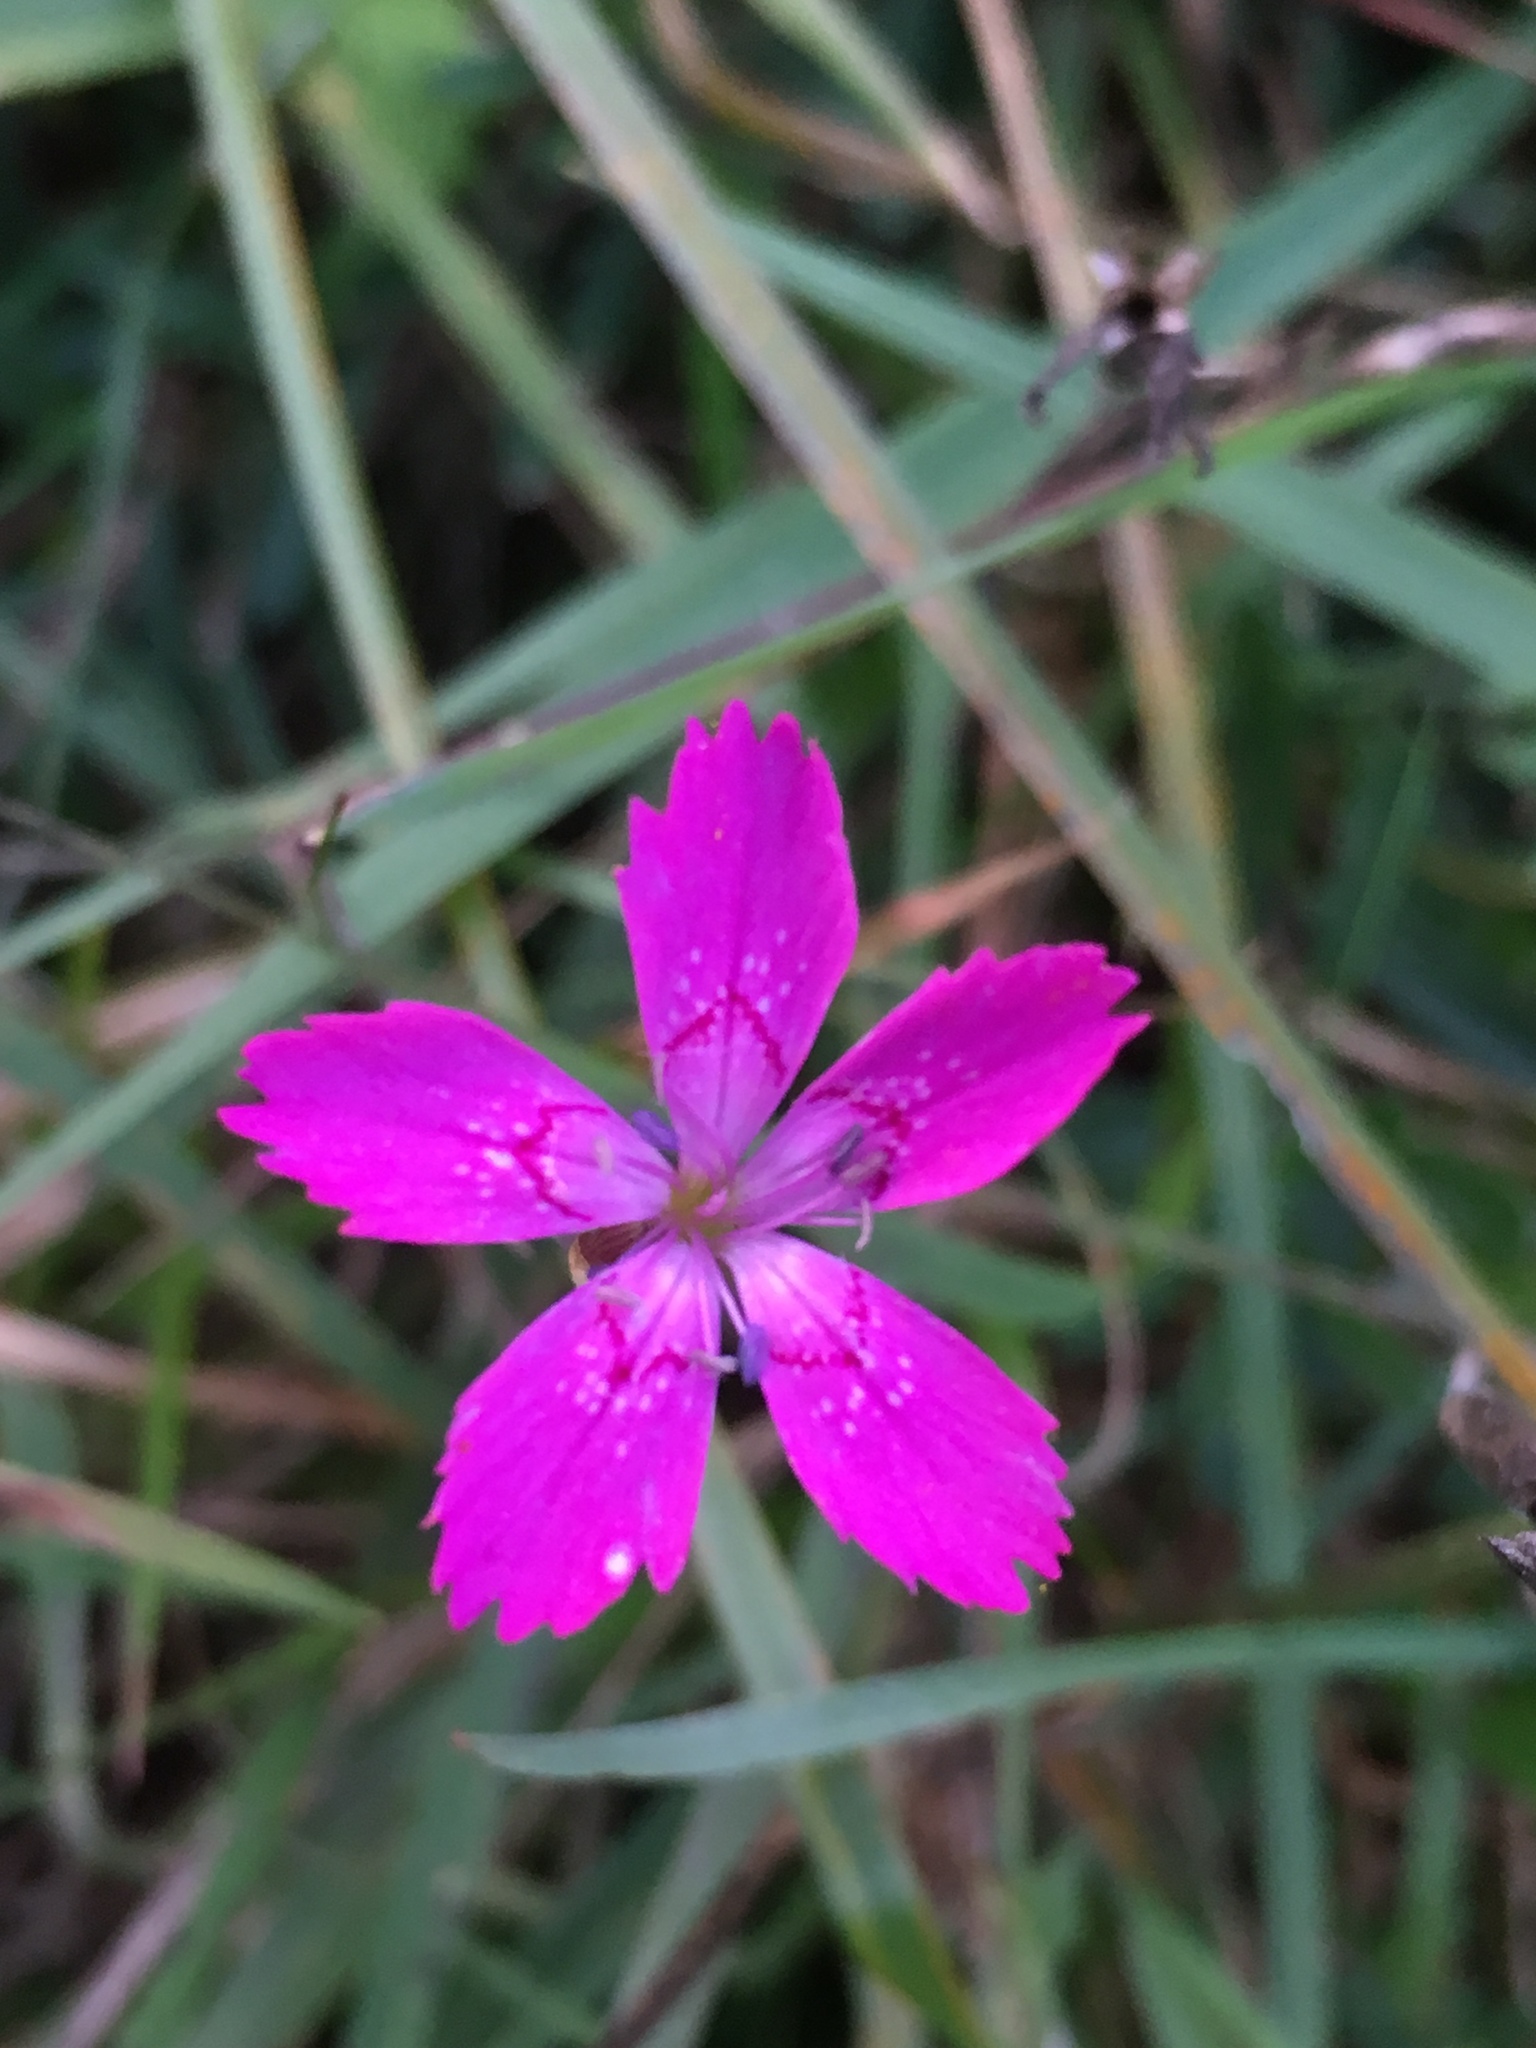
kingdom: Plantae
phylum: Tracheophyta
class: Magnoliopsida
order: Caryophyllales
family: Caryophyllaceae
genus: Dianthus
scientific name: Dianthus deltoides
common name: Maiden pink
